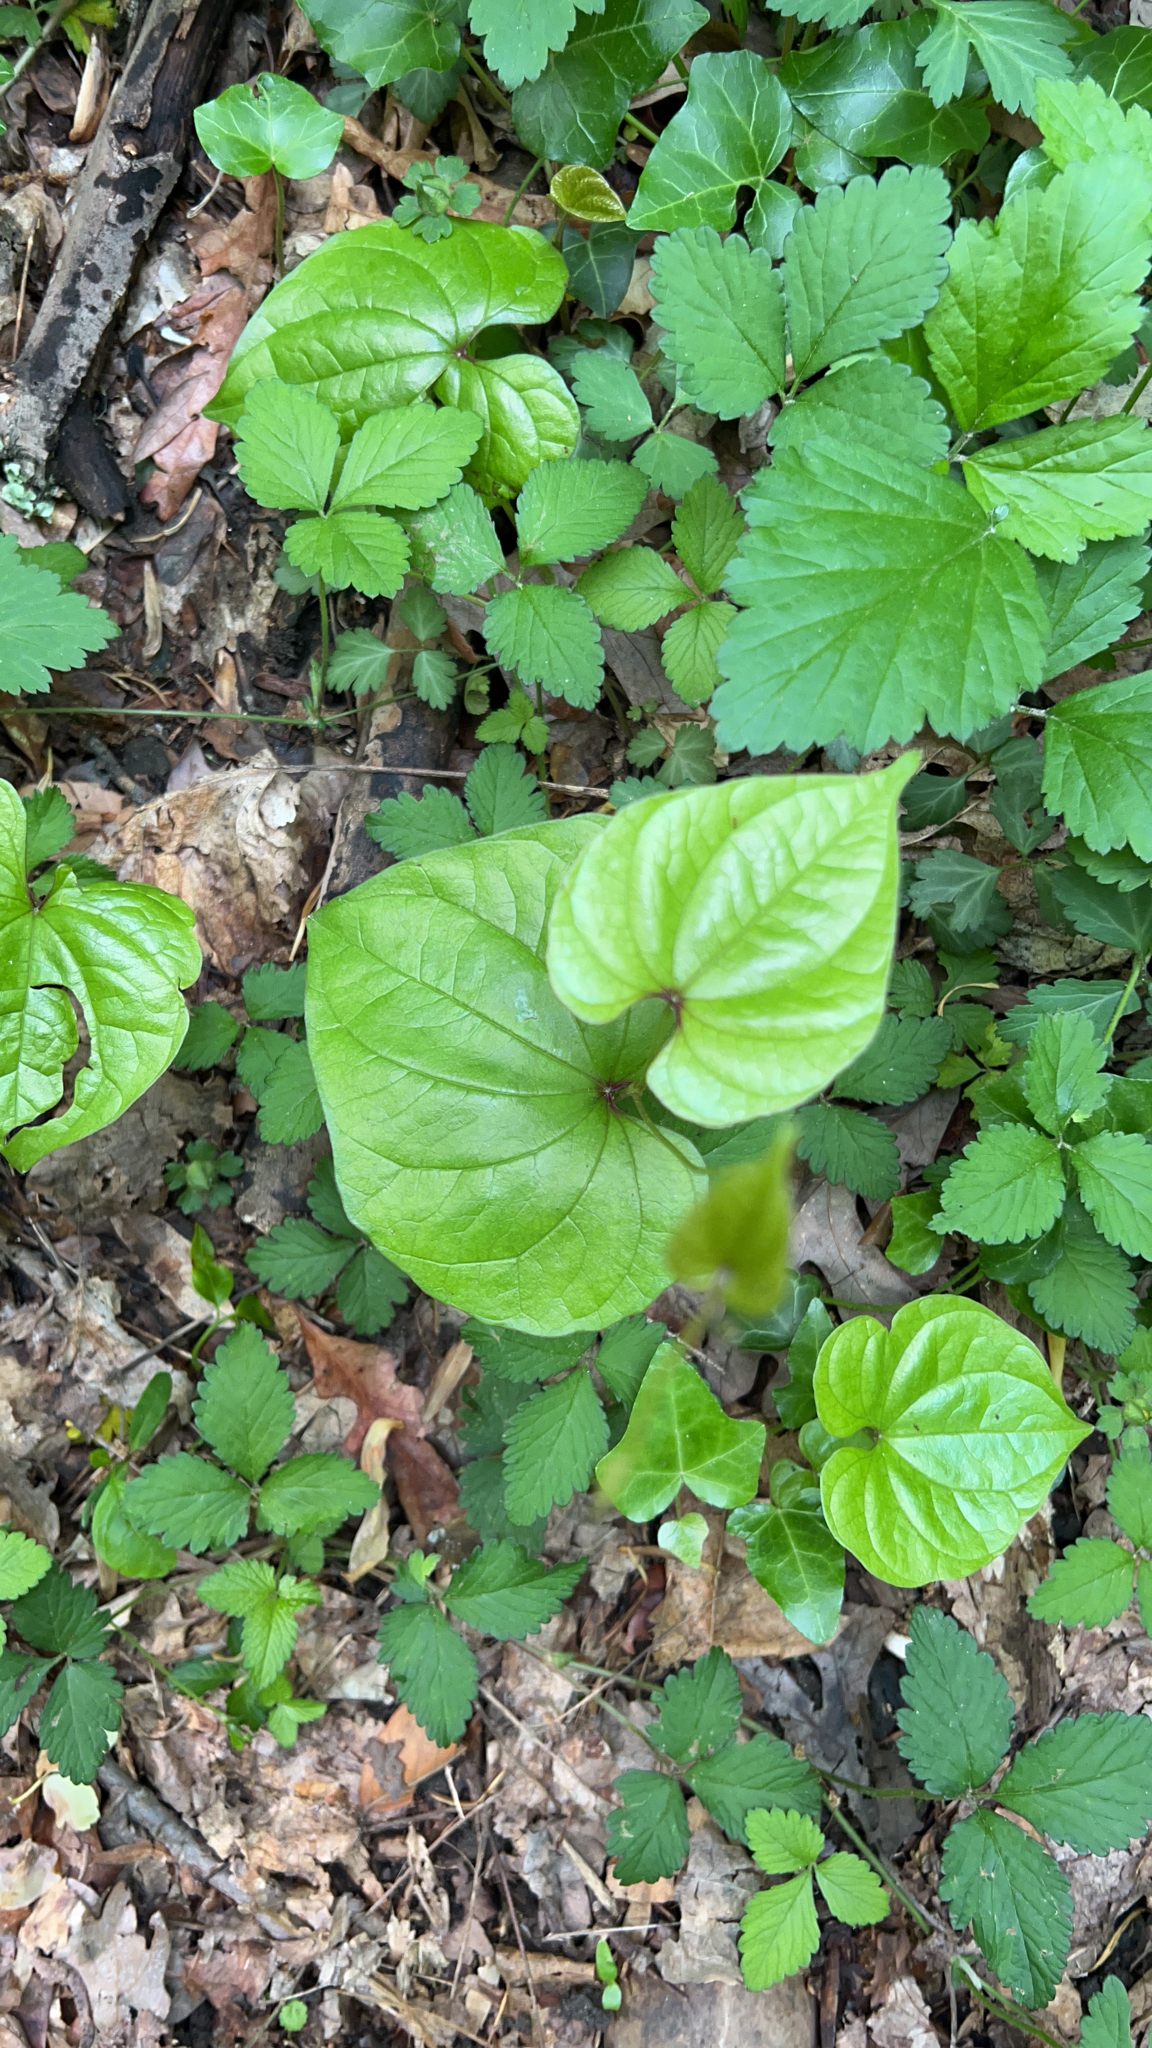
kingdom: Plantae
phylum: Tracheophyta
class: Liliopsida
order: Dioscoreales
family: Dioscoreaceae
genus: Dioscorea
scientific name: Dioscorea polystachya
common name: Chinese yam
